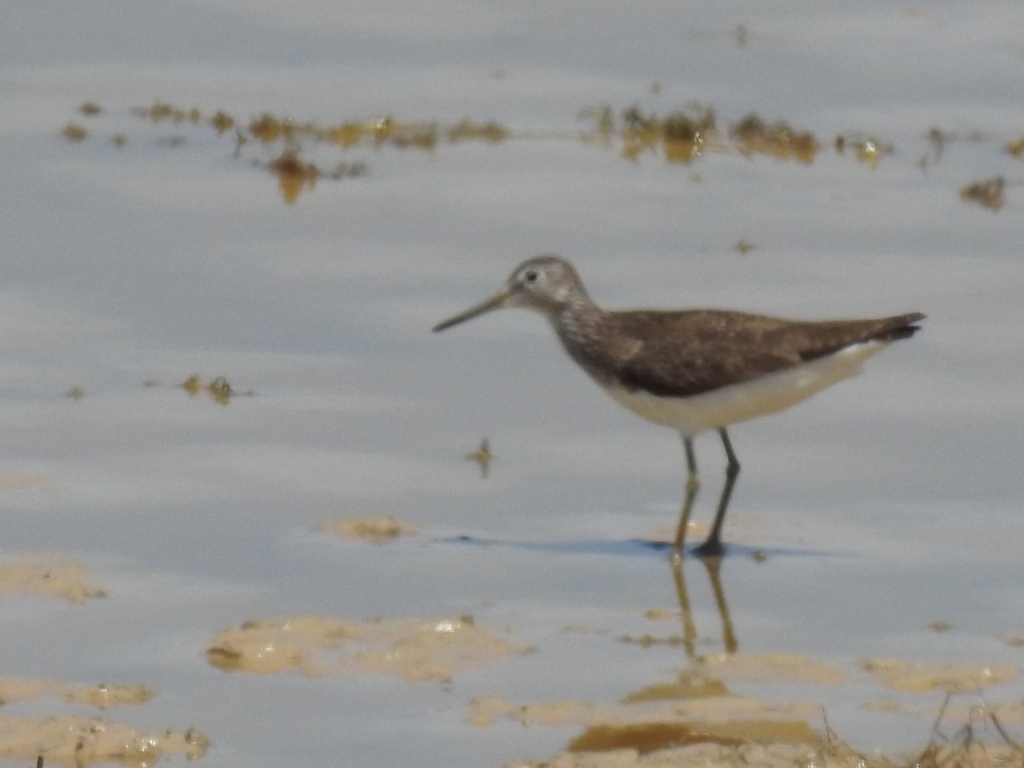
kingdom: Animalia
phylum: Chordata
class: Aves
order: Charadriiformes
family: Scolopacidae
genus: Tringa
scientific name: Tringa ochropus
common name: Green sandpiper
